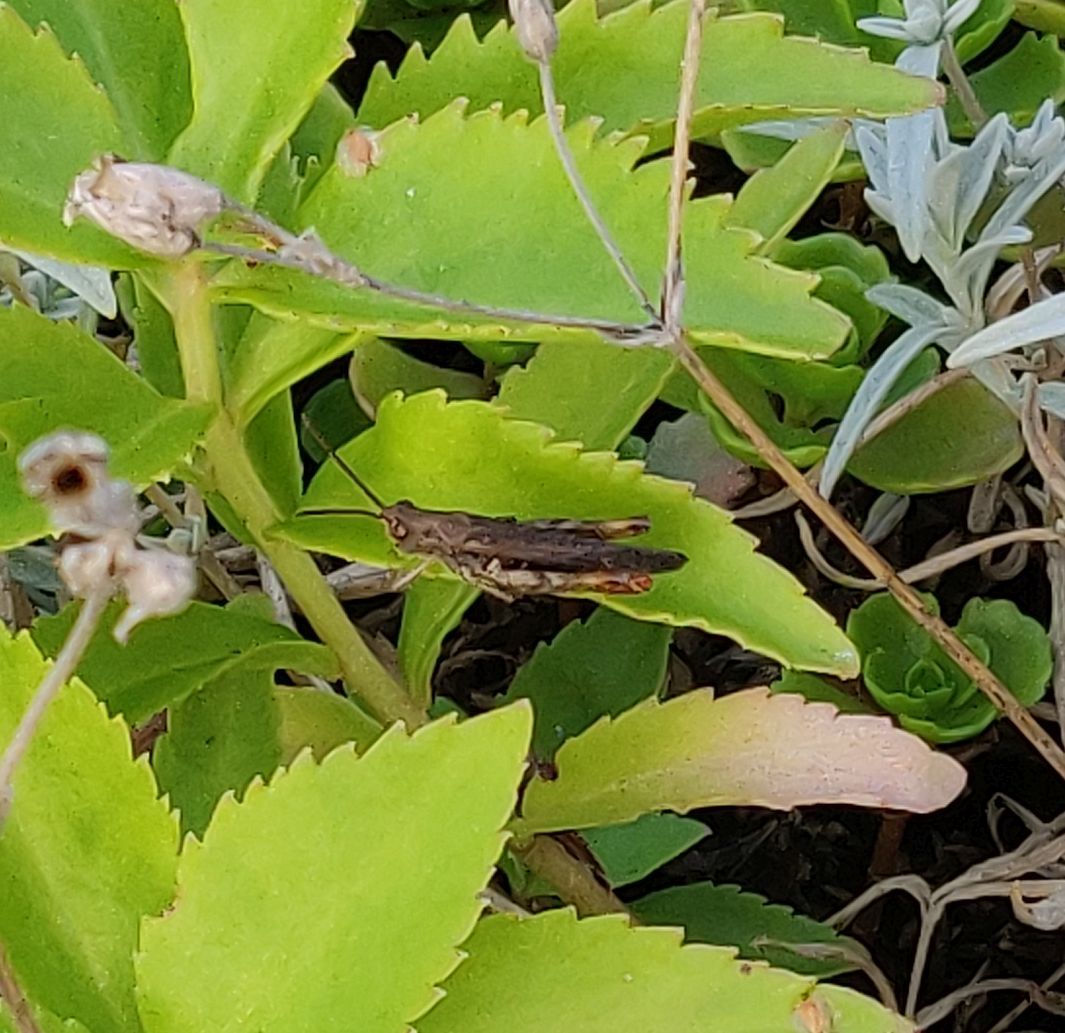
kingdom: Animalia
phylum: Arthropoda
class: Insecta
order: Orthoptera
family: Acrididae
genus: Chorthippus
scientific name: Chorthippus brunneus
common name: Field grasshopper
